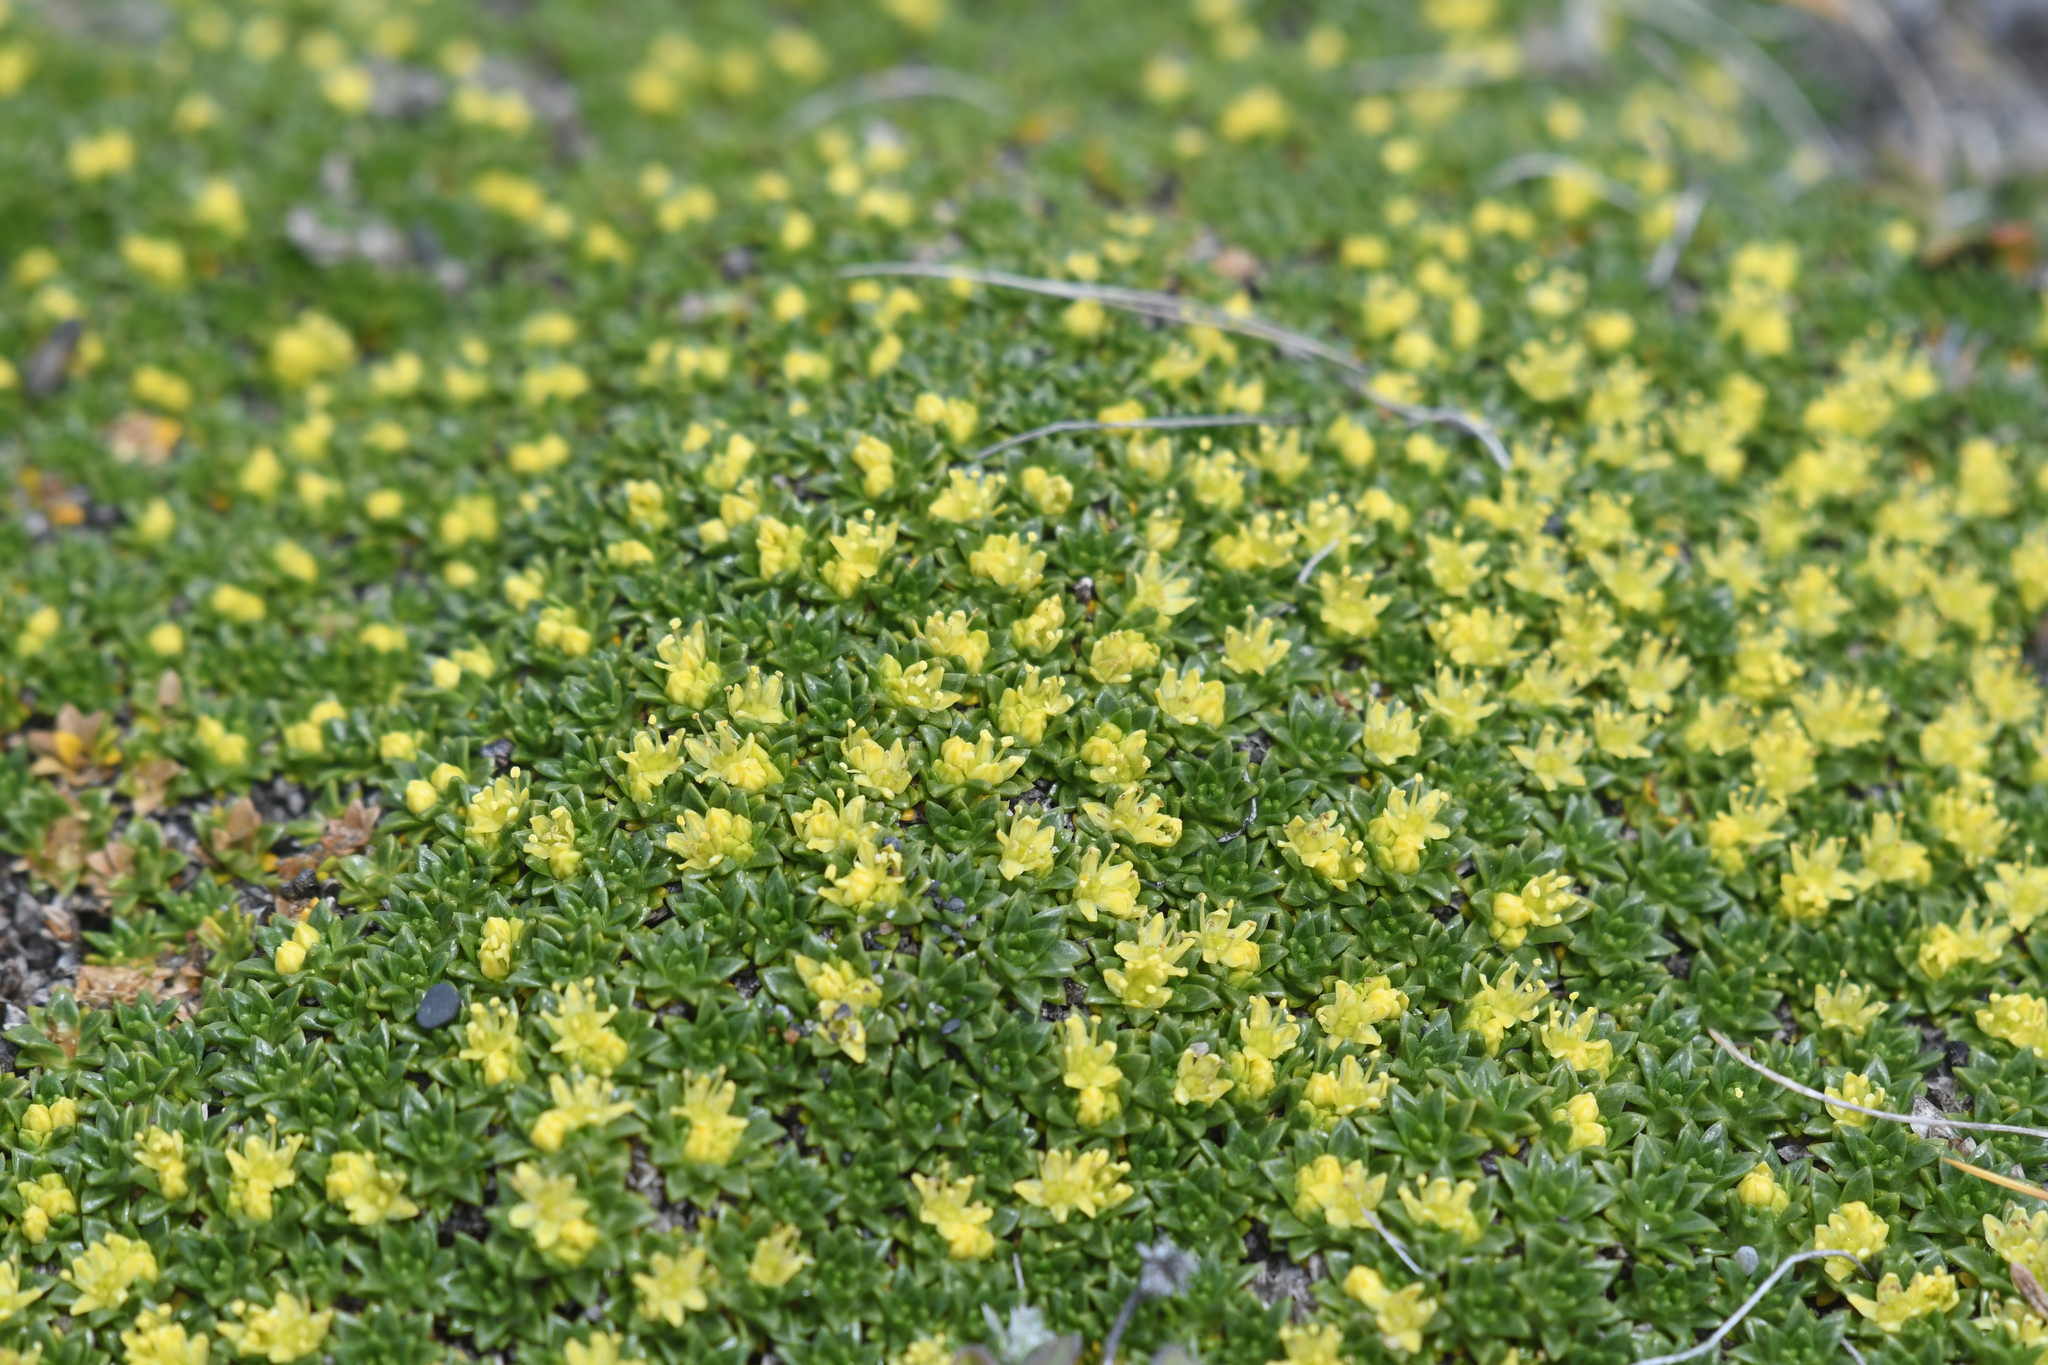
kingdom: Plantae
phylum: Tracheophyta
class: Magnoliopsida
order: Apiales
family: Apiaceae
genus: Azorella
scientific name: Azorella monantha
